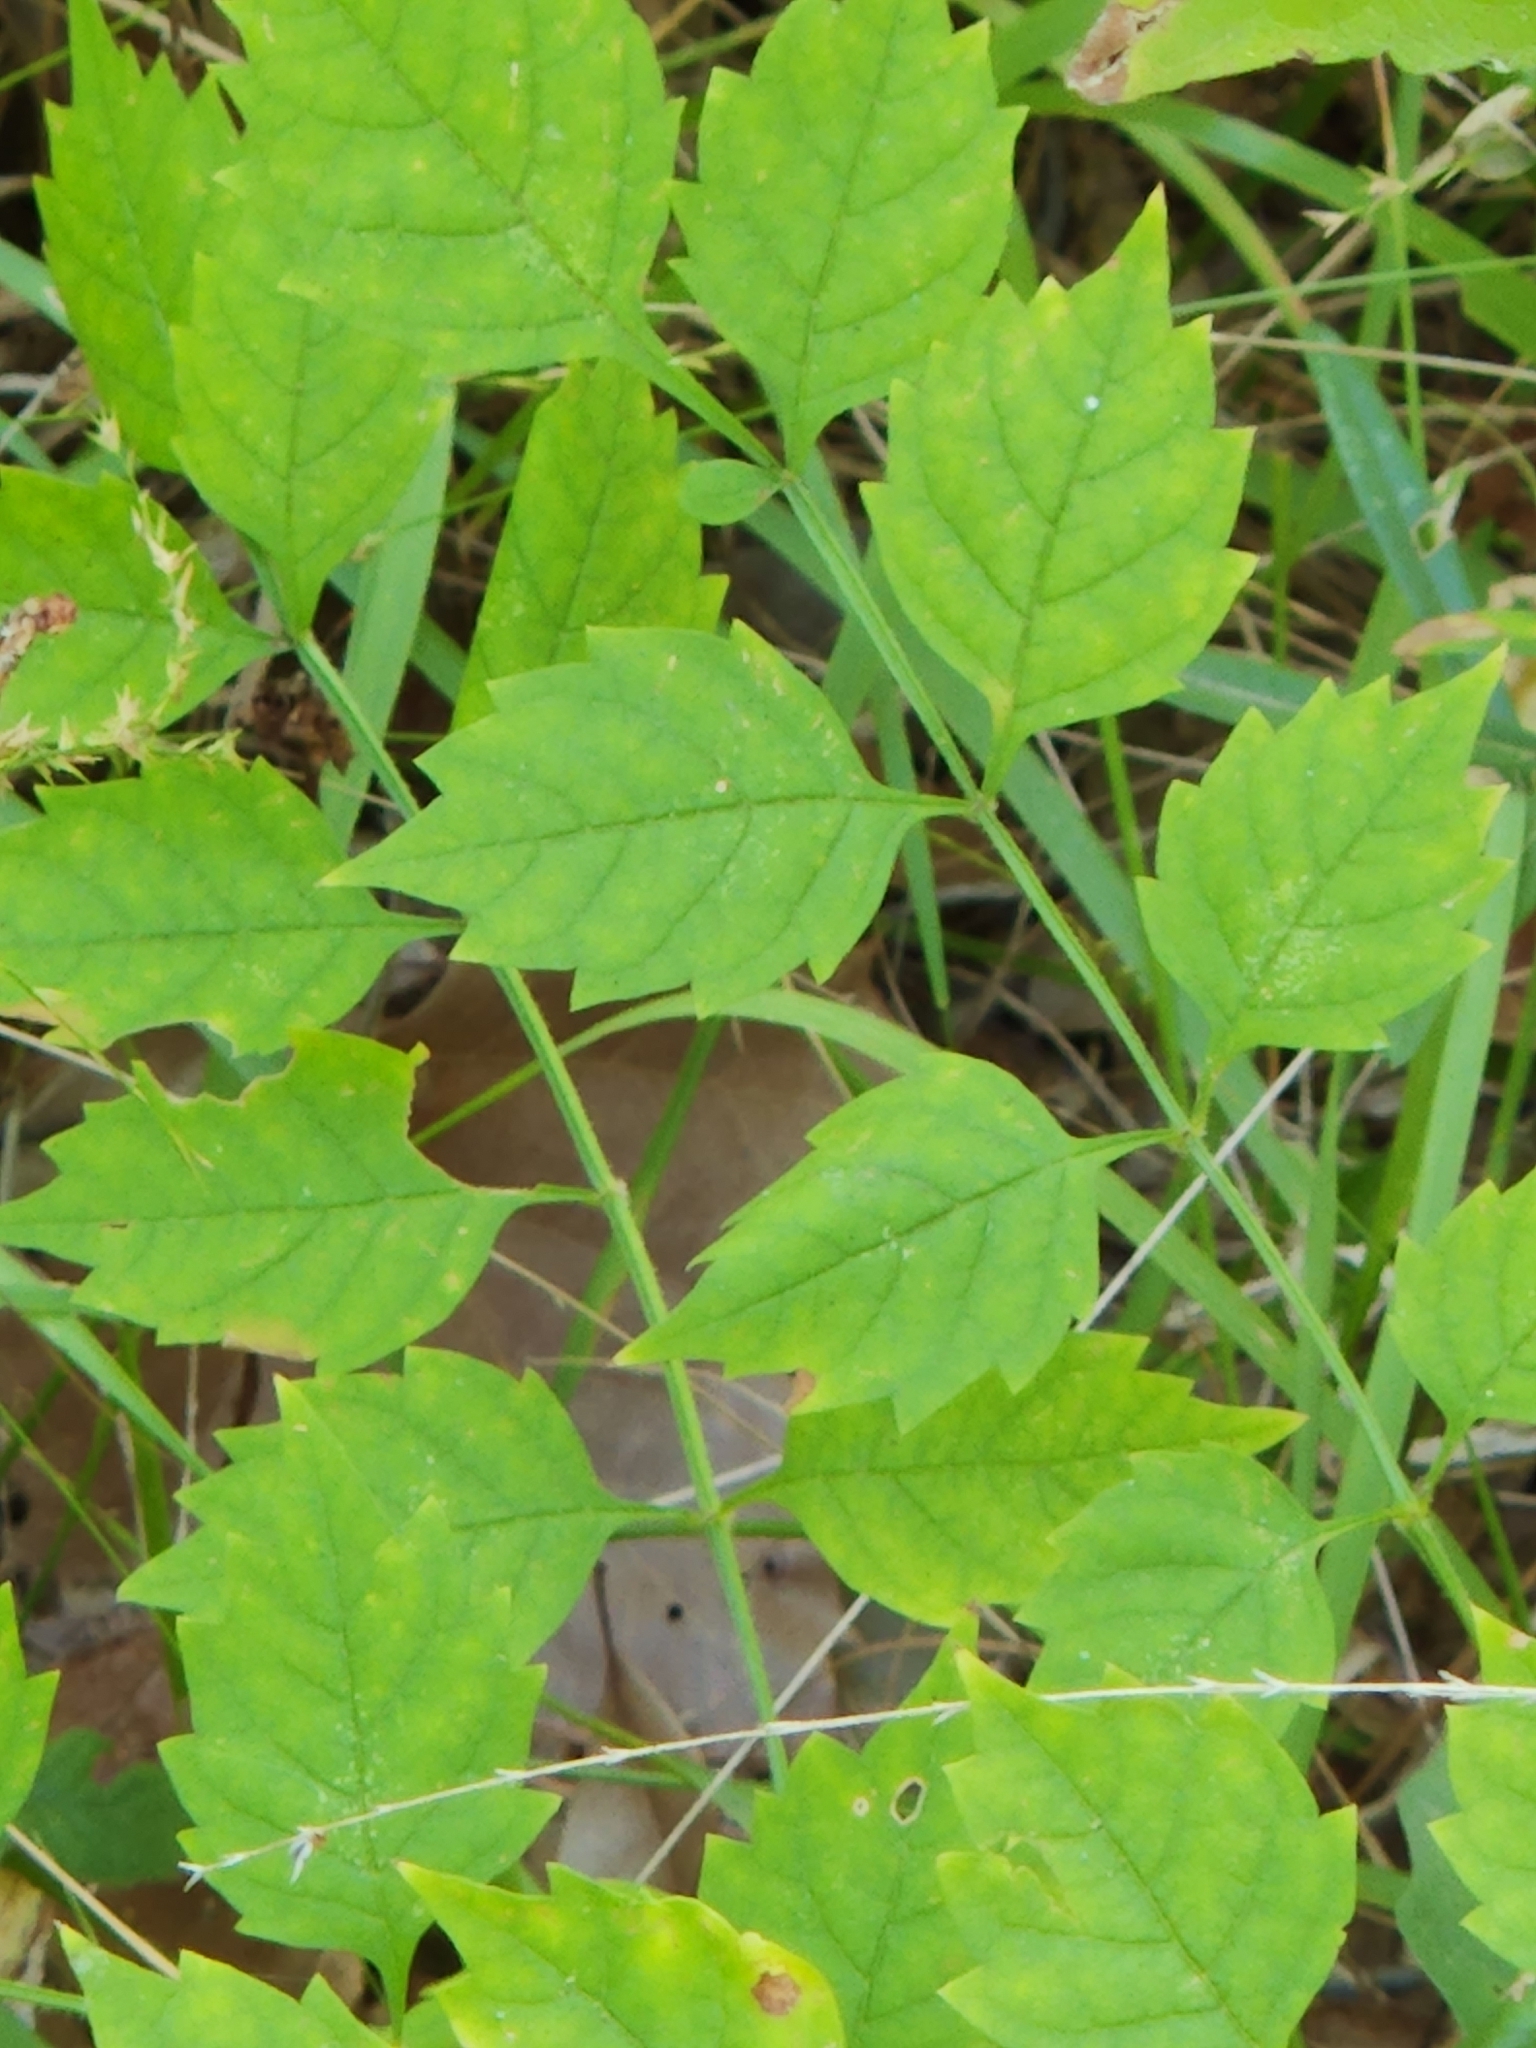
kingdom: Plantae
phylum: Tracheophyta
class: Magnoliopsida
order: Lamiales
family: Bignoniaceae
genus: Campsis
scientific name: Campsis radicans
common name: Trumpet-creeper
